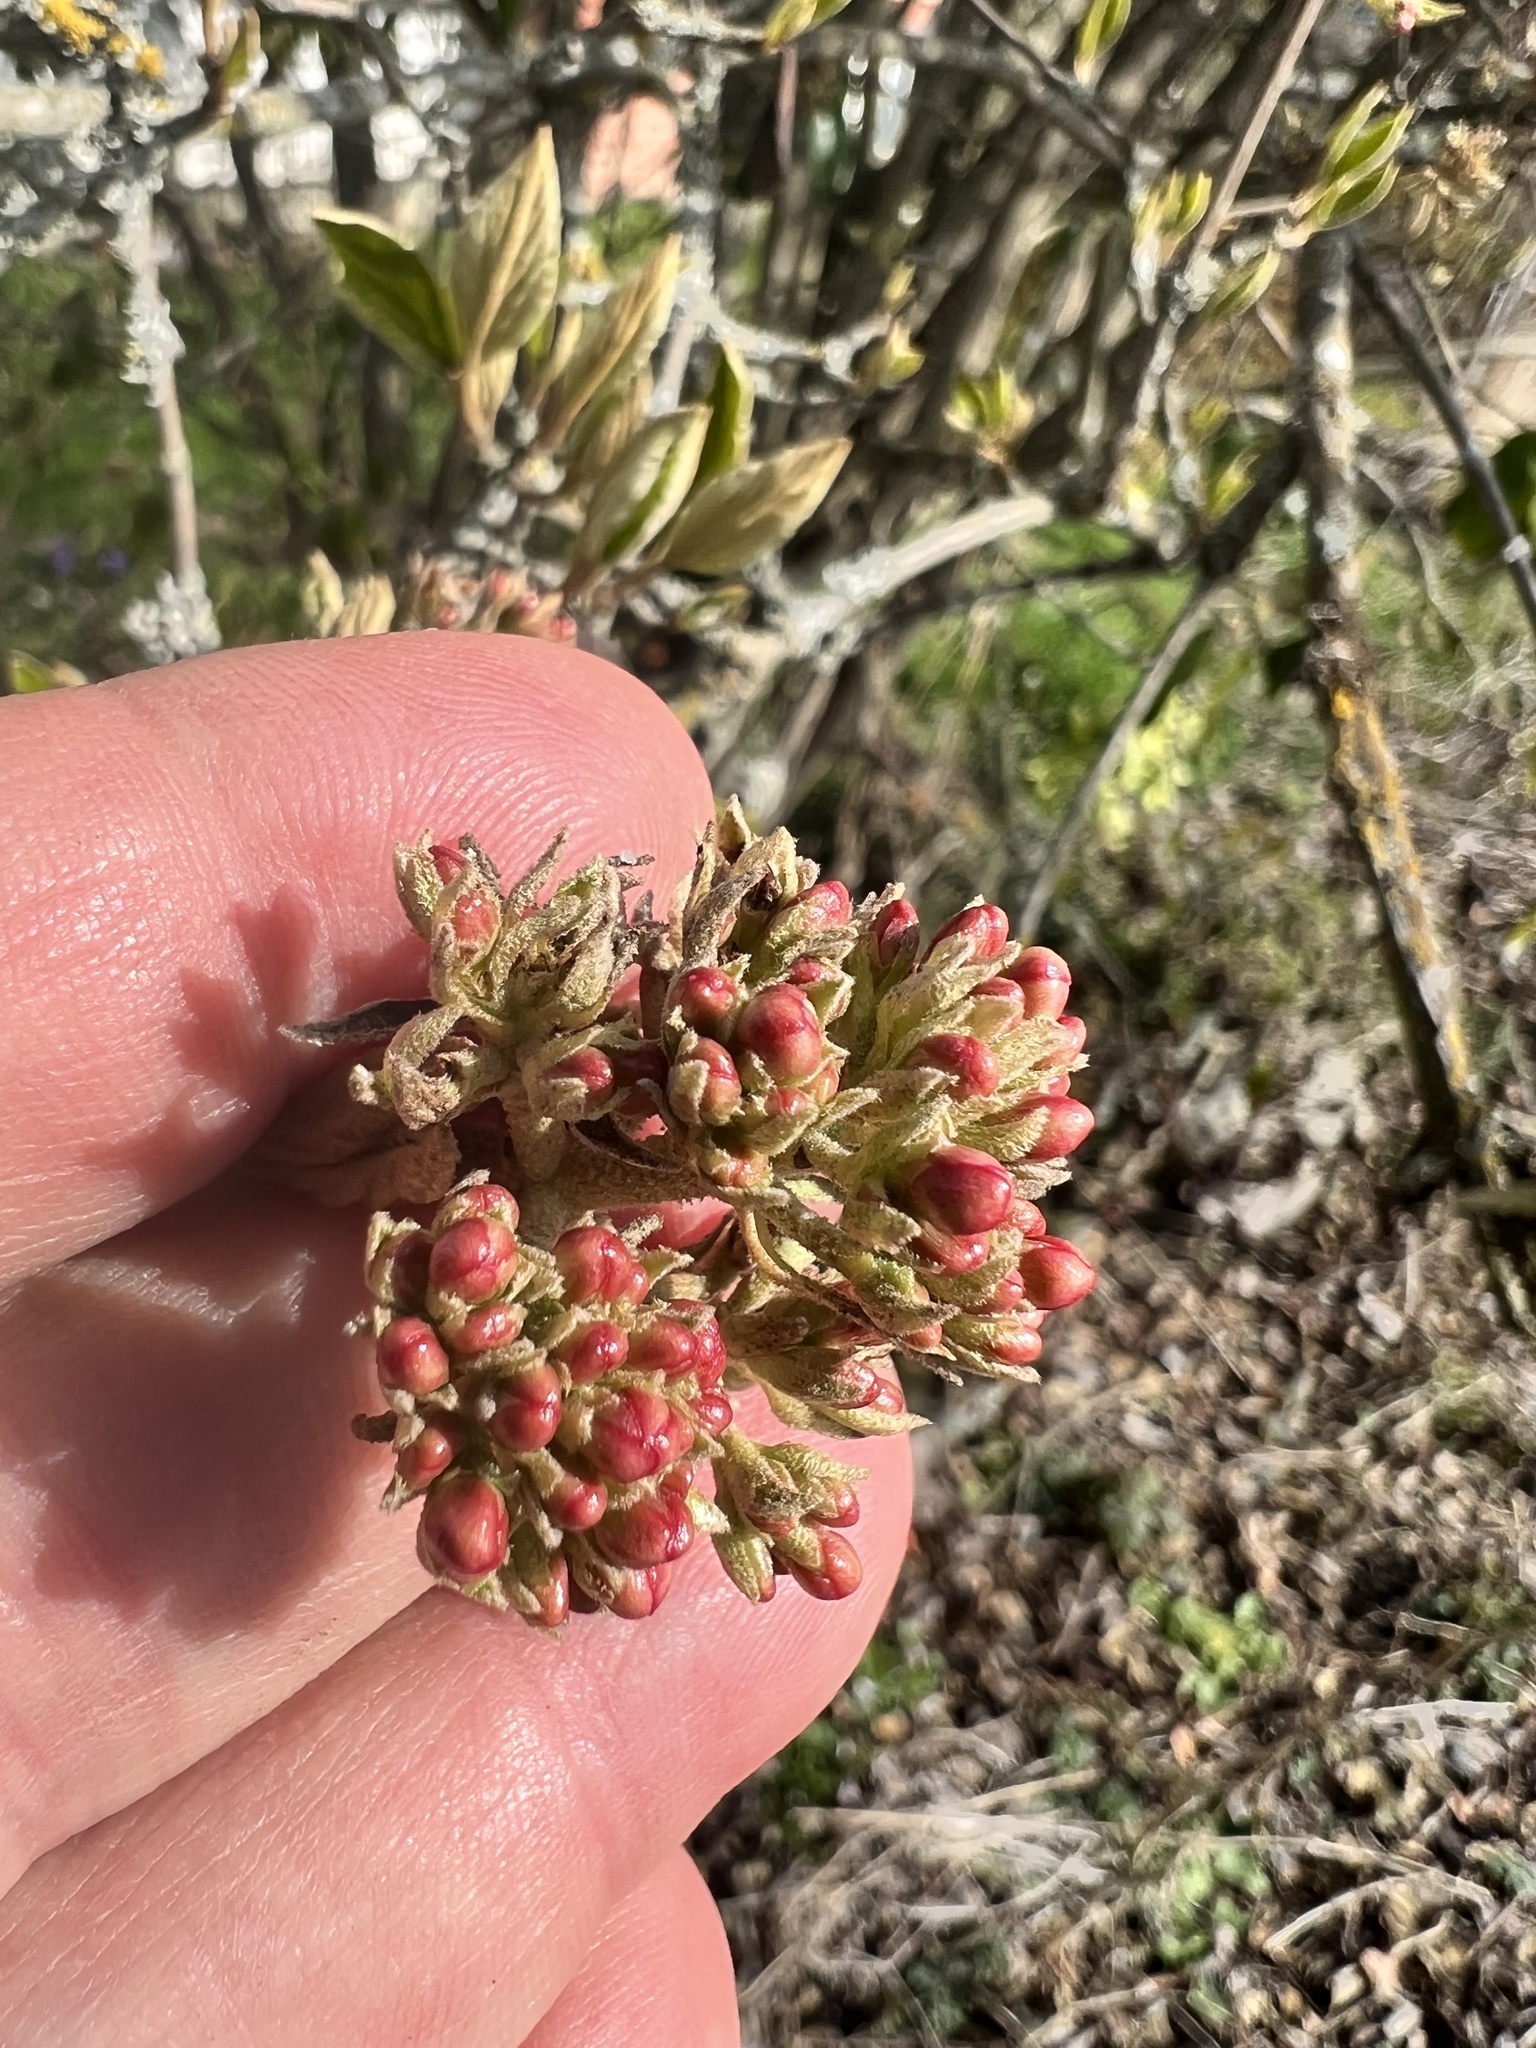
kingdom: Plantae
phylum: Tracheophyta
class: Magnoliopsida
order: Dipsacales
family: Viburnaceae
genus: Viburnum
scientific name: Viburnum carlesii
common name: Koreanspice viburnum
